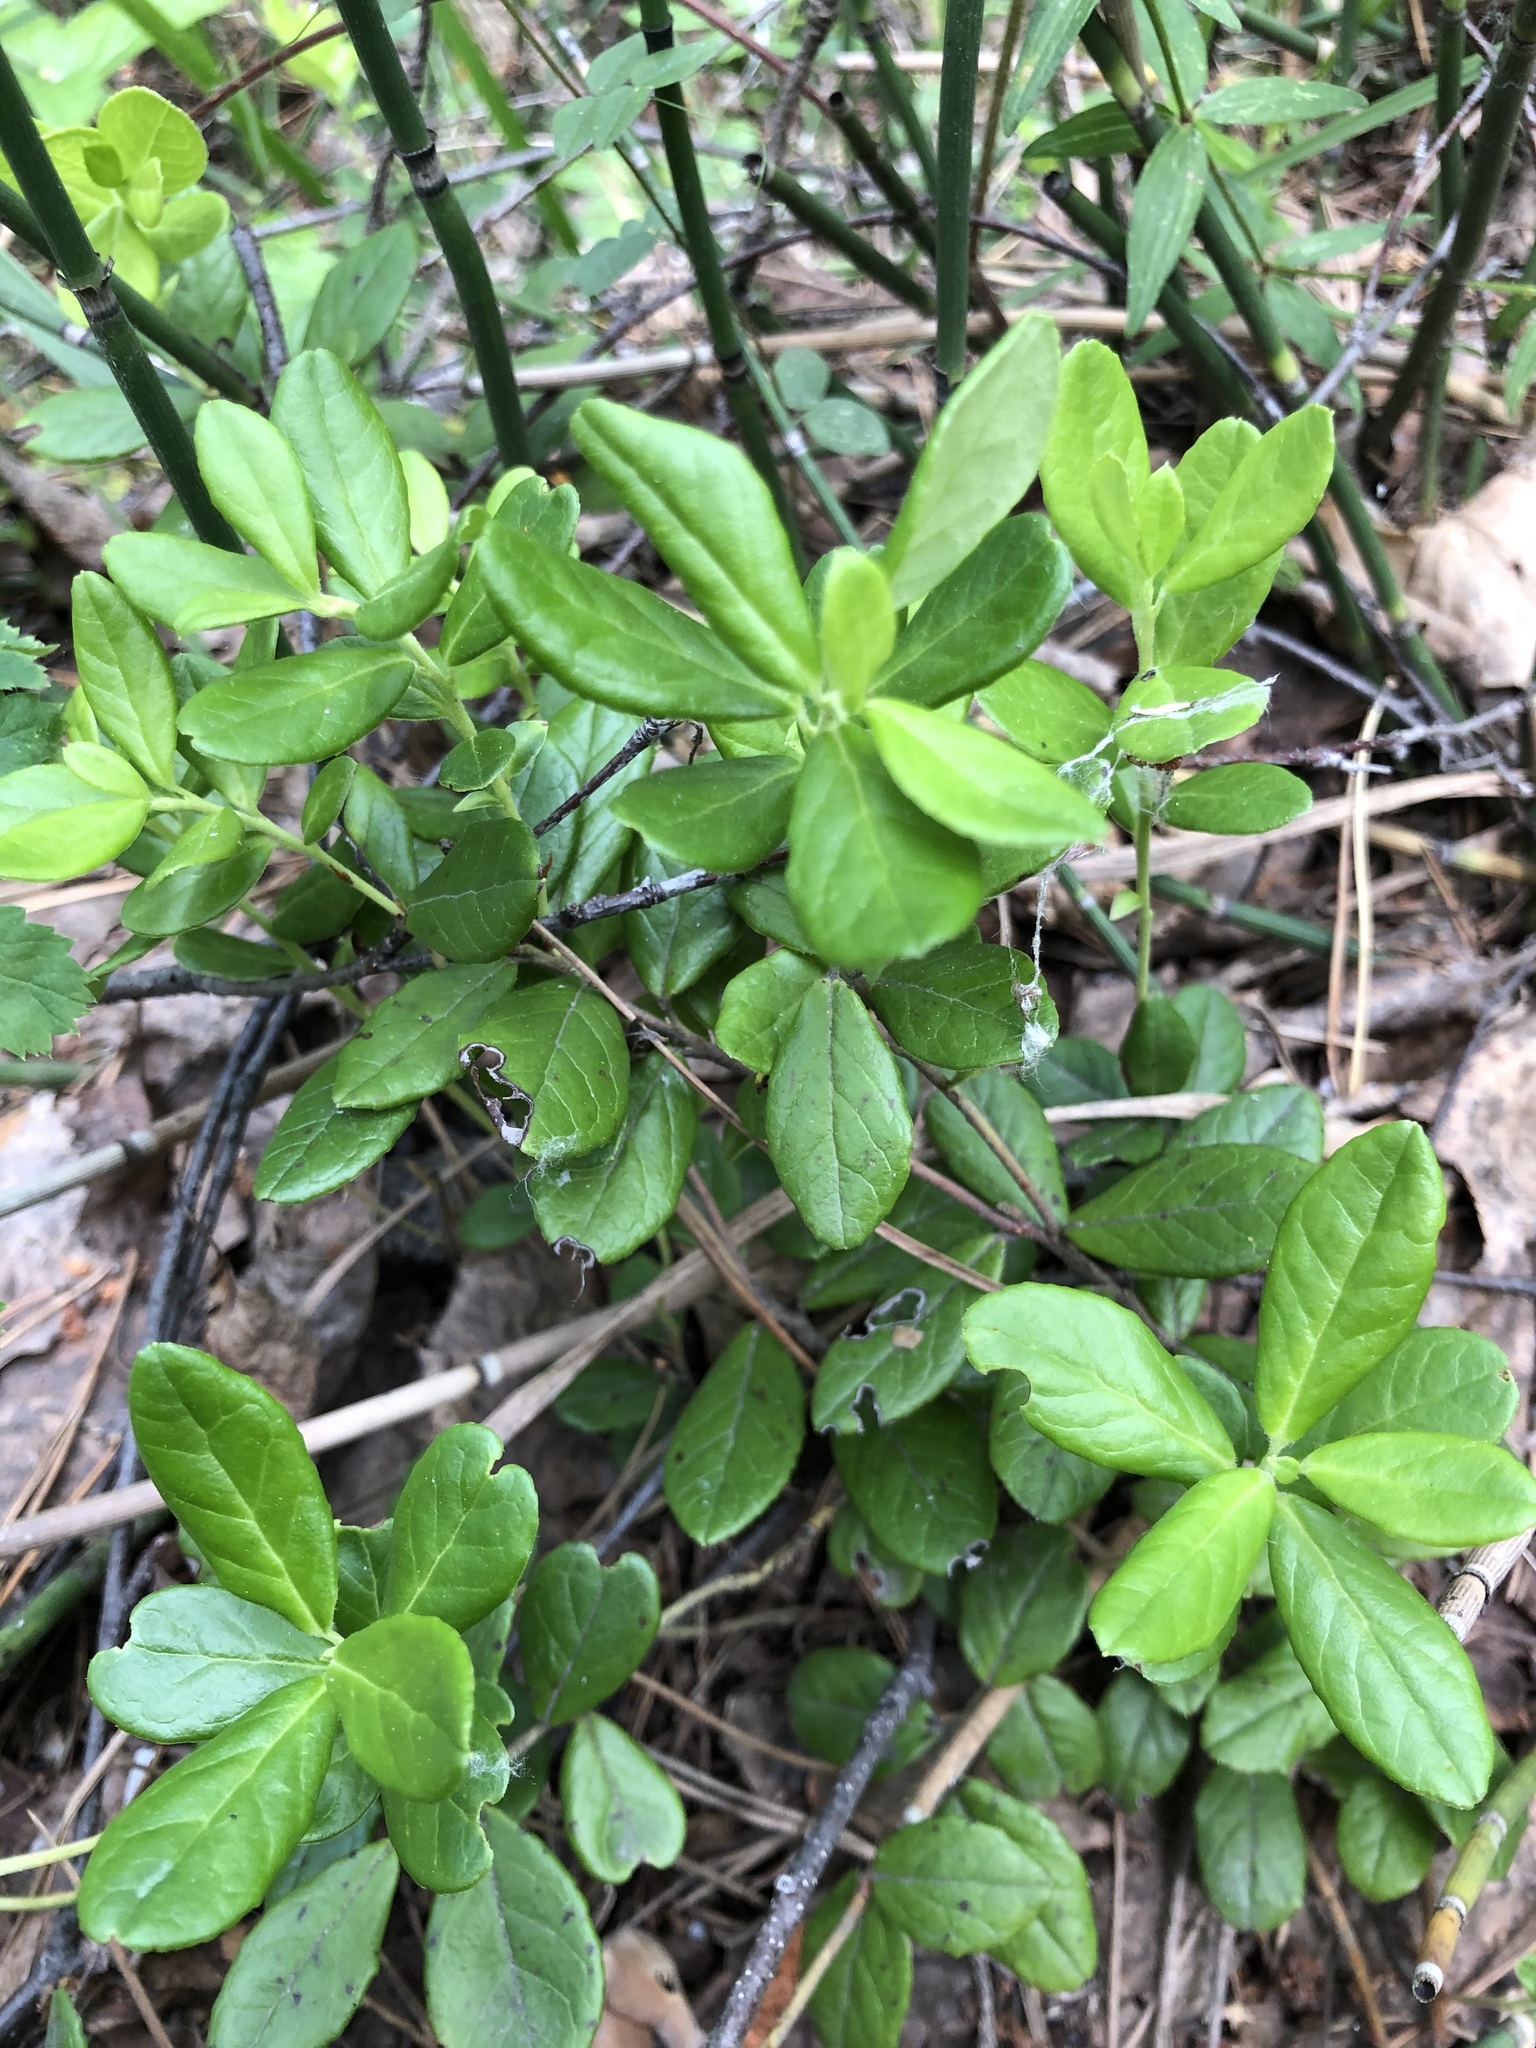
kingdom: Plantae
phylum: Tracheophyta
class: Magnoliopsida
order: Ericales
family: Ericaceae
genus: Vaccinium
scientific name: Vaccinium vitis-idaea
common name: Cowberry
